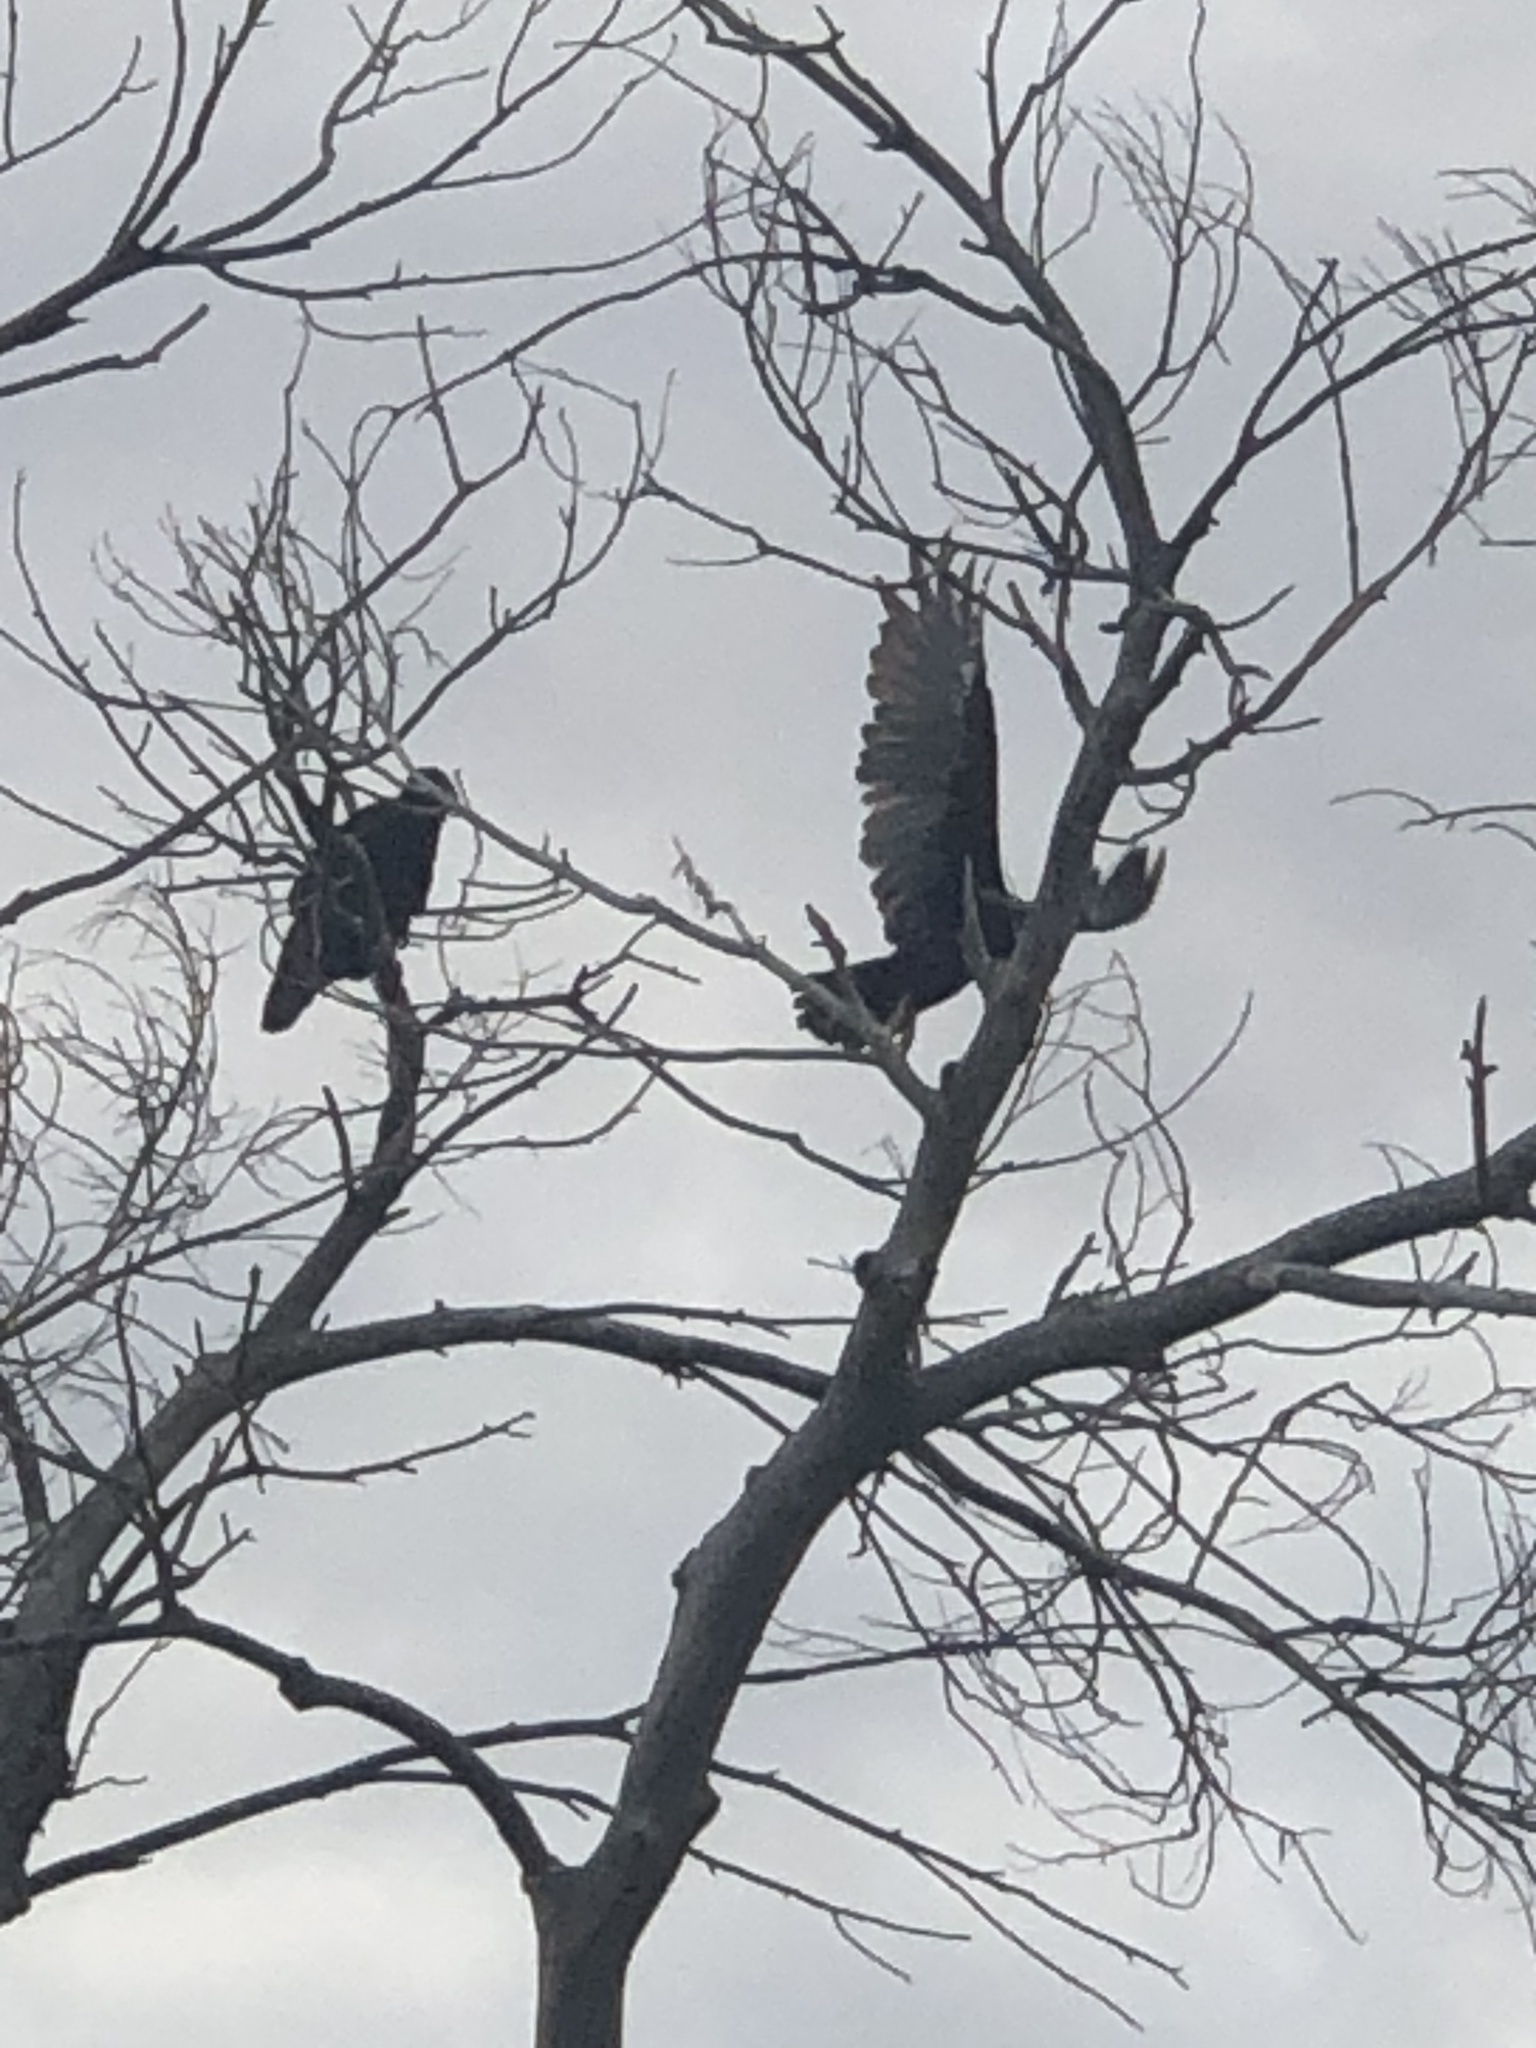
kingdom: Animalia
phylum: Chordata
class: Aves
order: Accipitriformes
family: Cathartidae
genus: Cathartes
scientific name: Cathartes aura
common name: Turkey vulture
